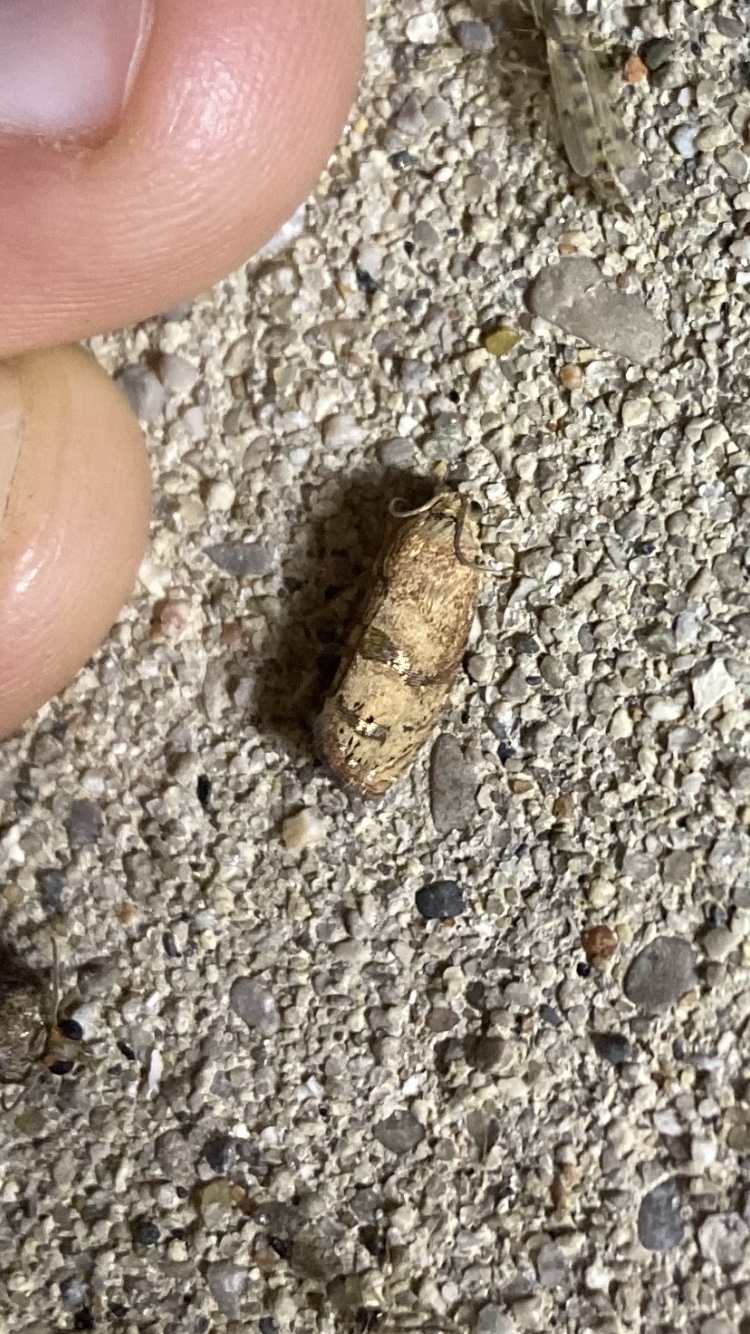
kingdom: Animalia
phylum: Arthropoda
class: Insecta
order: Lepidoptera
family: Tortricidae
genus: Cydia
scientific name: Cydia latiferreana
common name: Filbertworm moth
